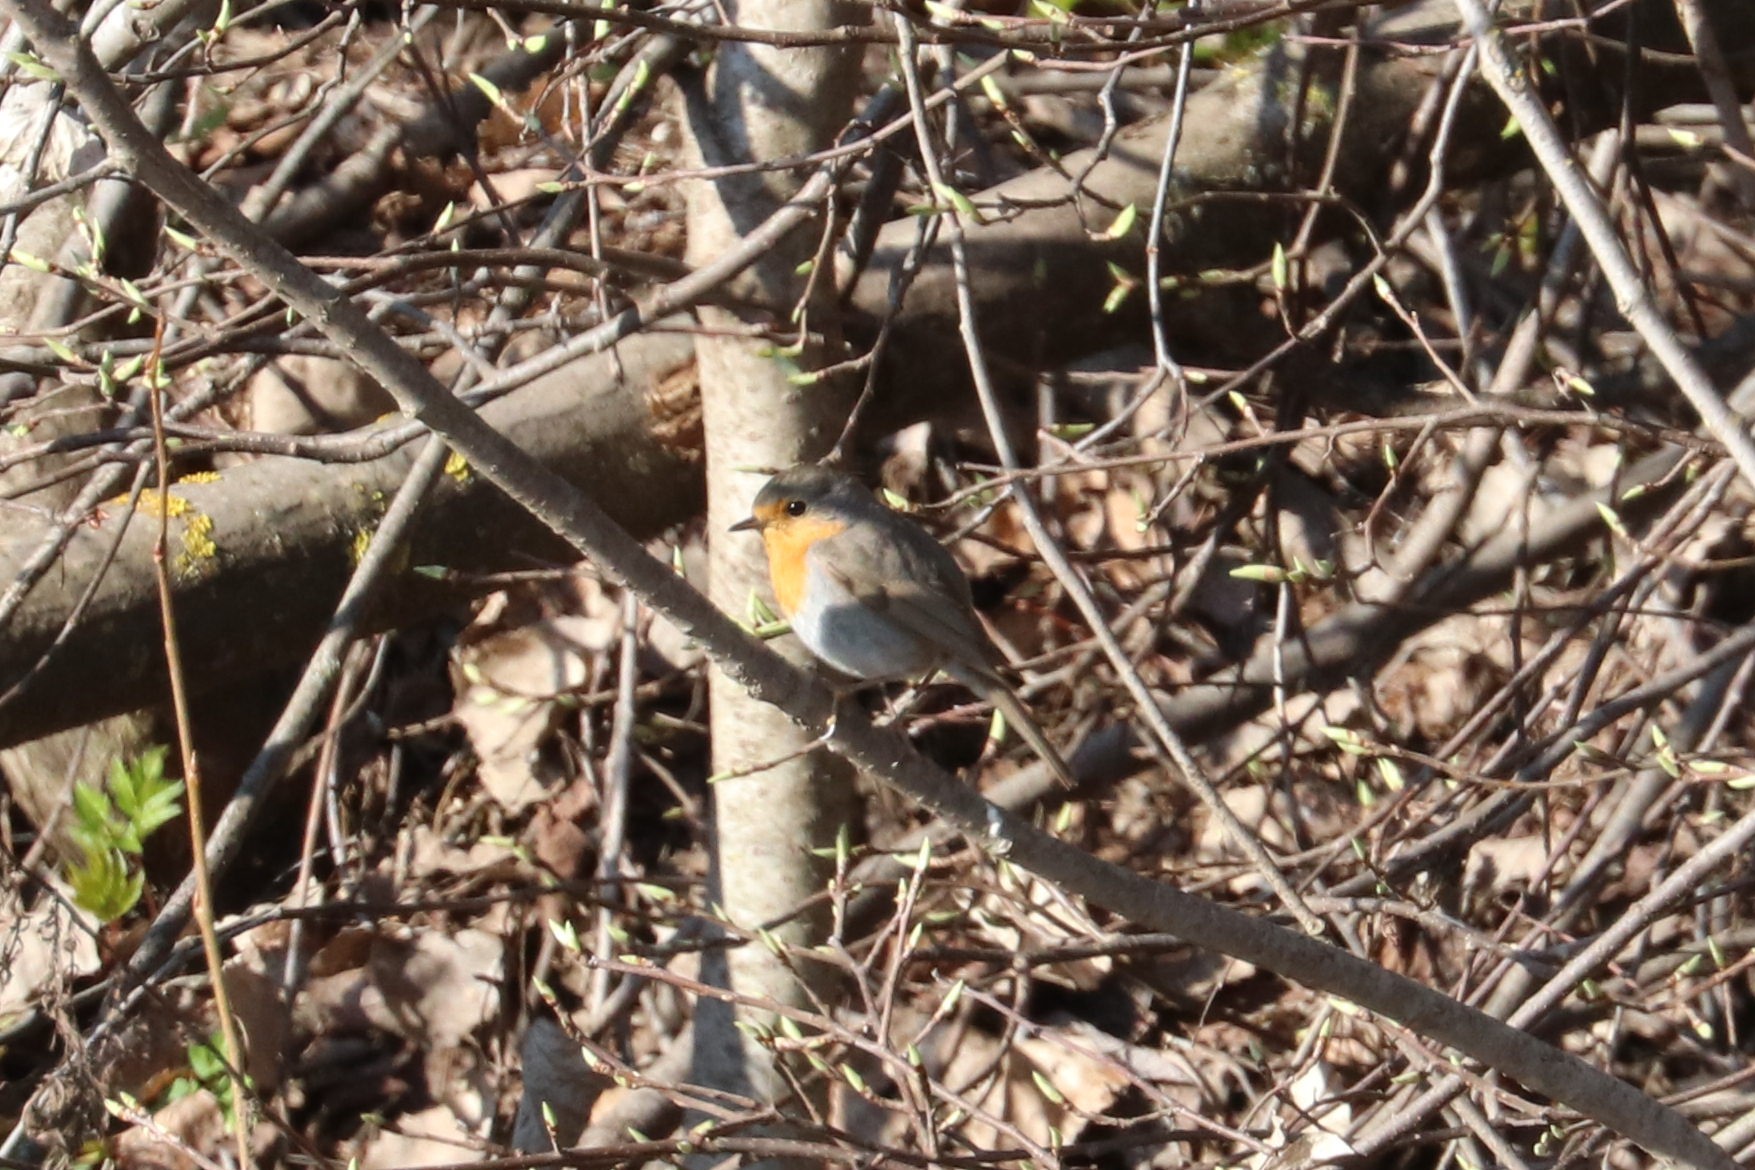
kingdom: Animalia
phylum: Chordata
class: Aves
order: Passeriformes
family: Muscicapidae
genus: Erithacus
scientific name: Erithacus rubecula
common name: European robin
